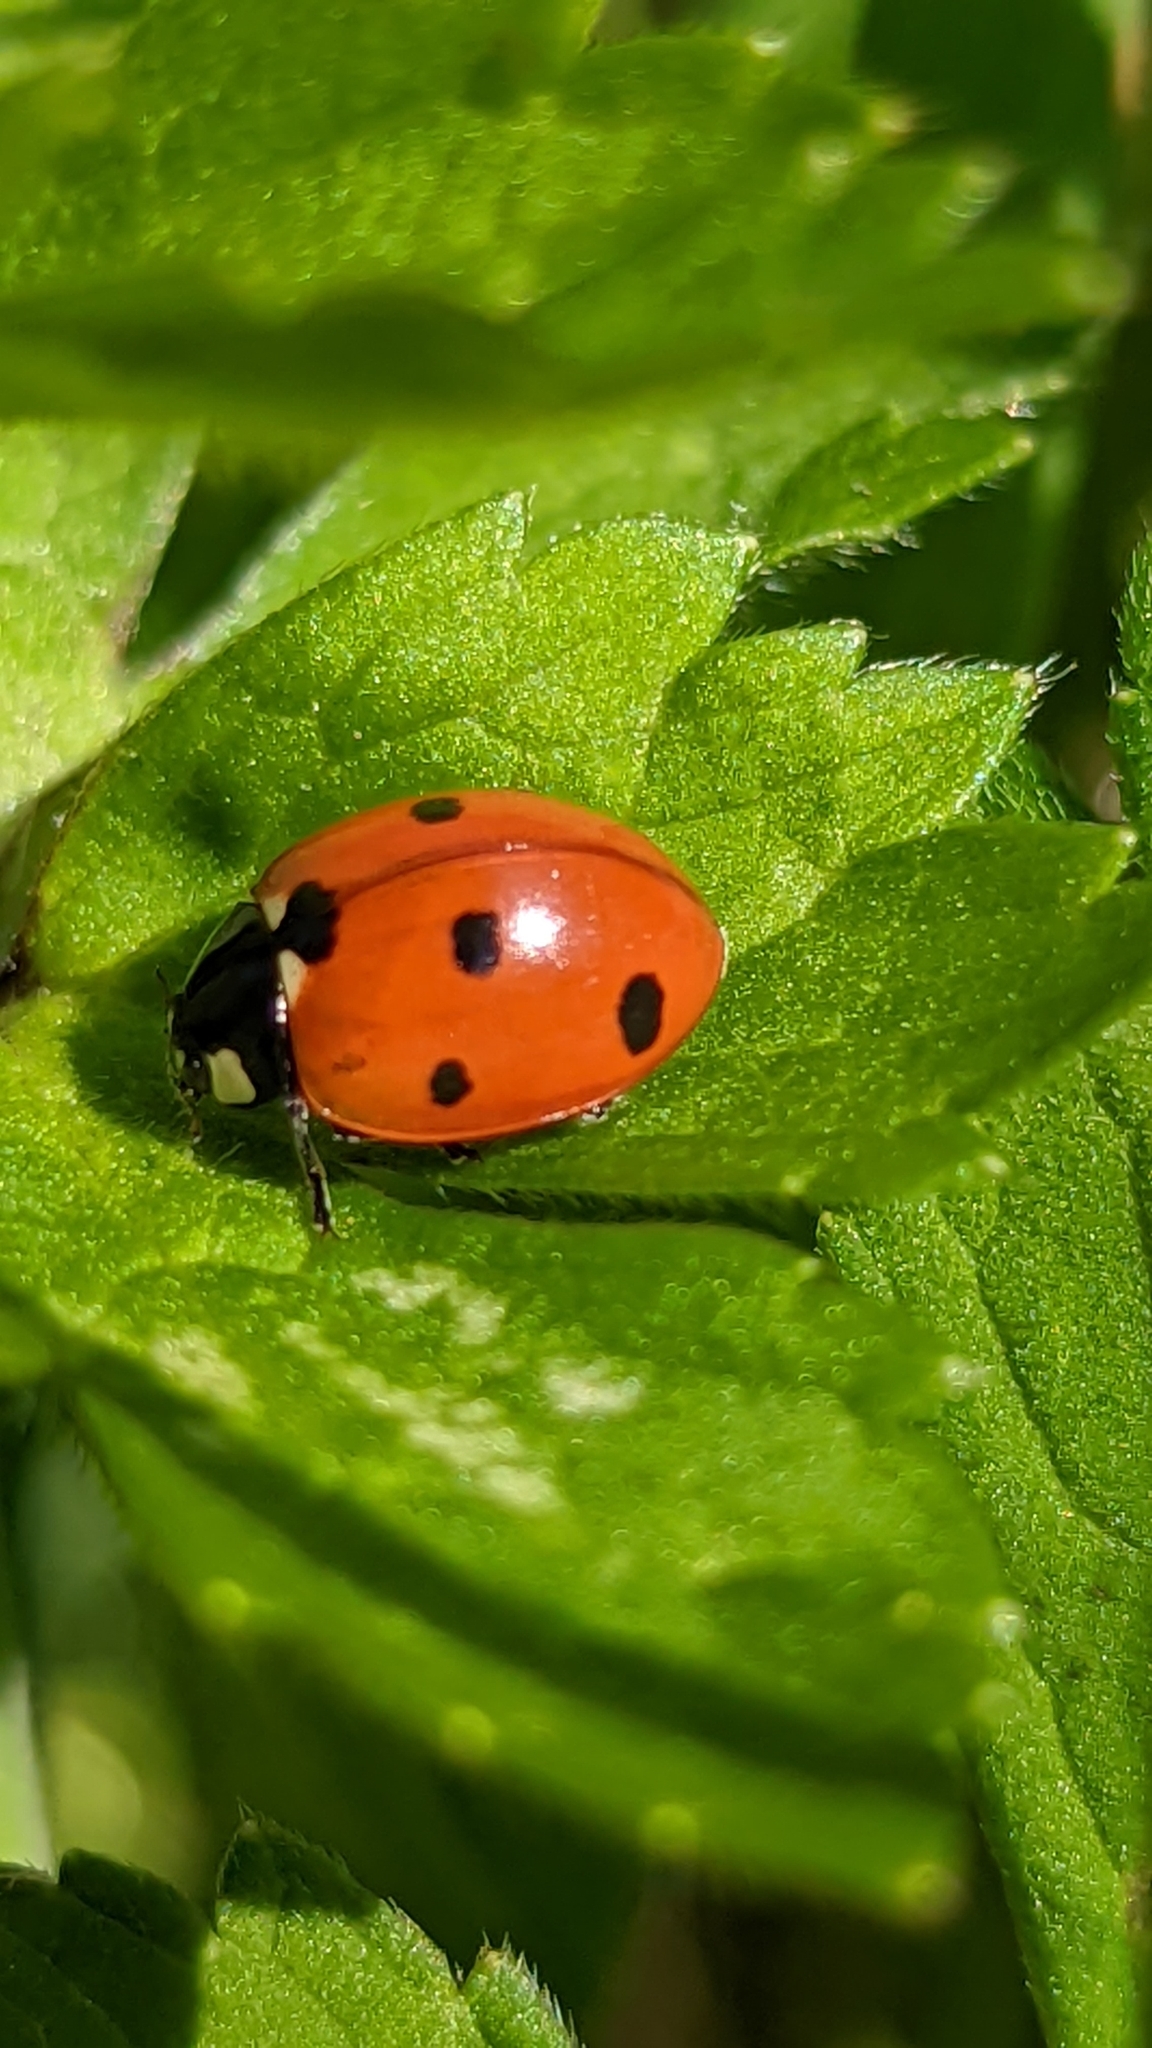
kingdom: Animalia
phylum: Arthropoda
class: Insecta
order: Coleoptera
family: Coccinellidae
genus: Coccinella
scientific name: Coccinella septempunctata
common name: Sevenspotted lady beetle
